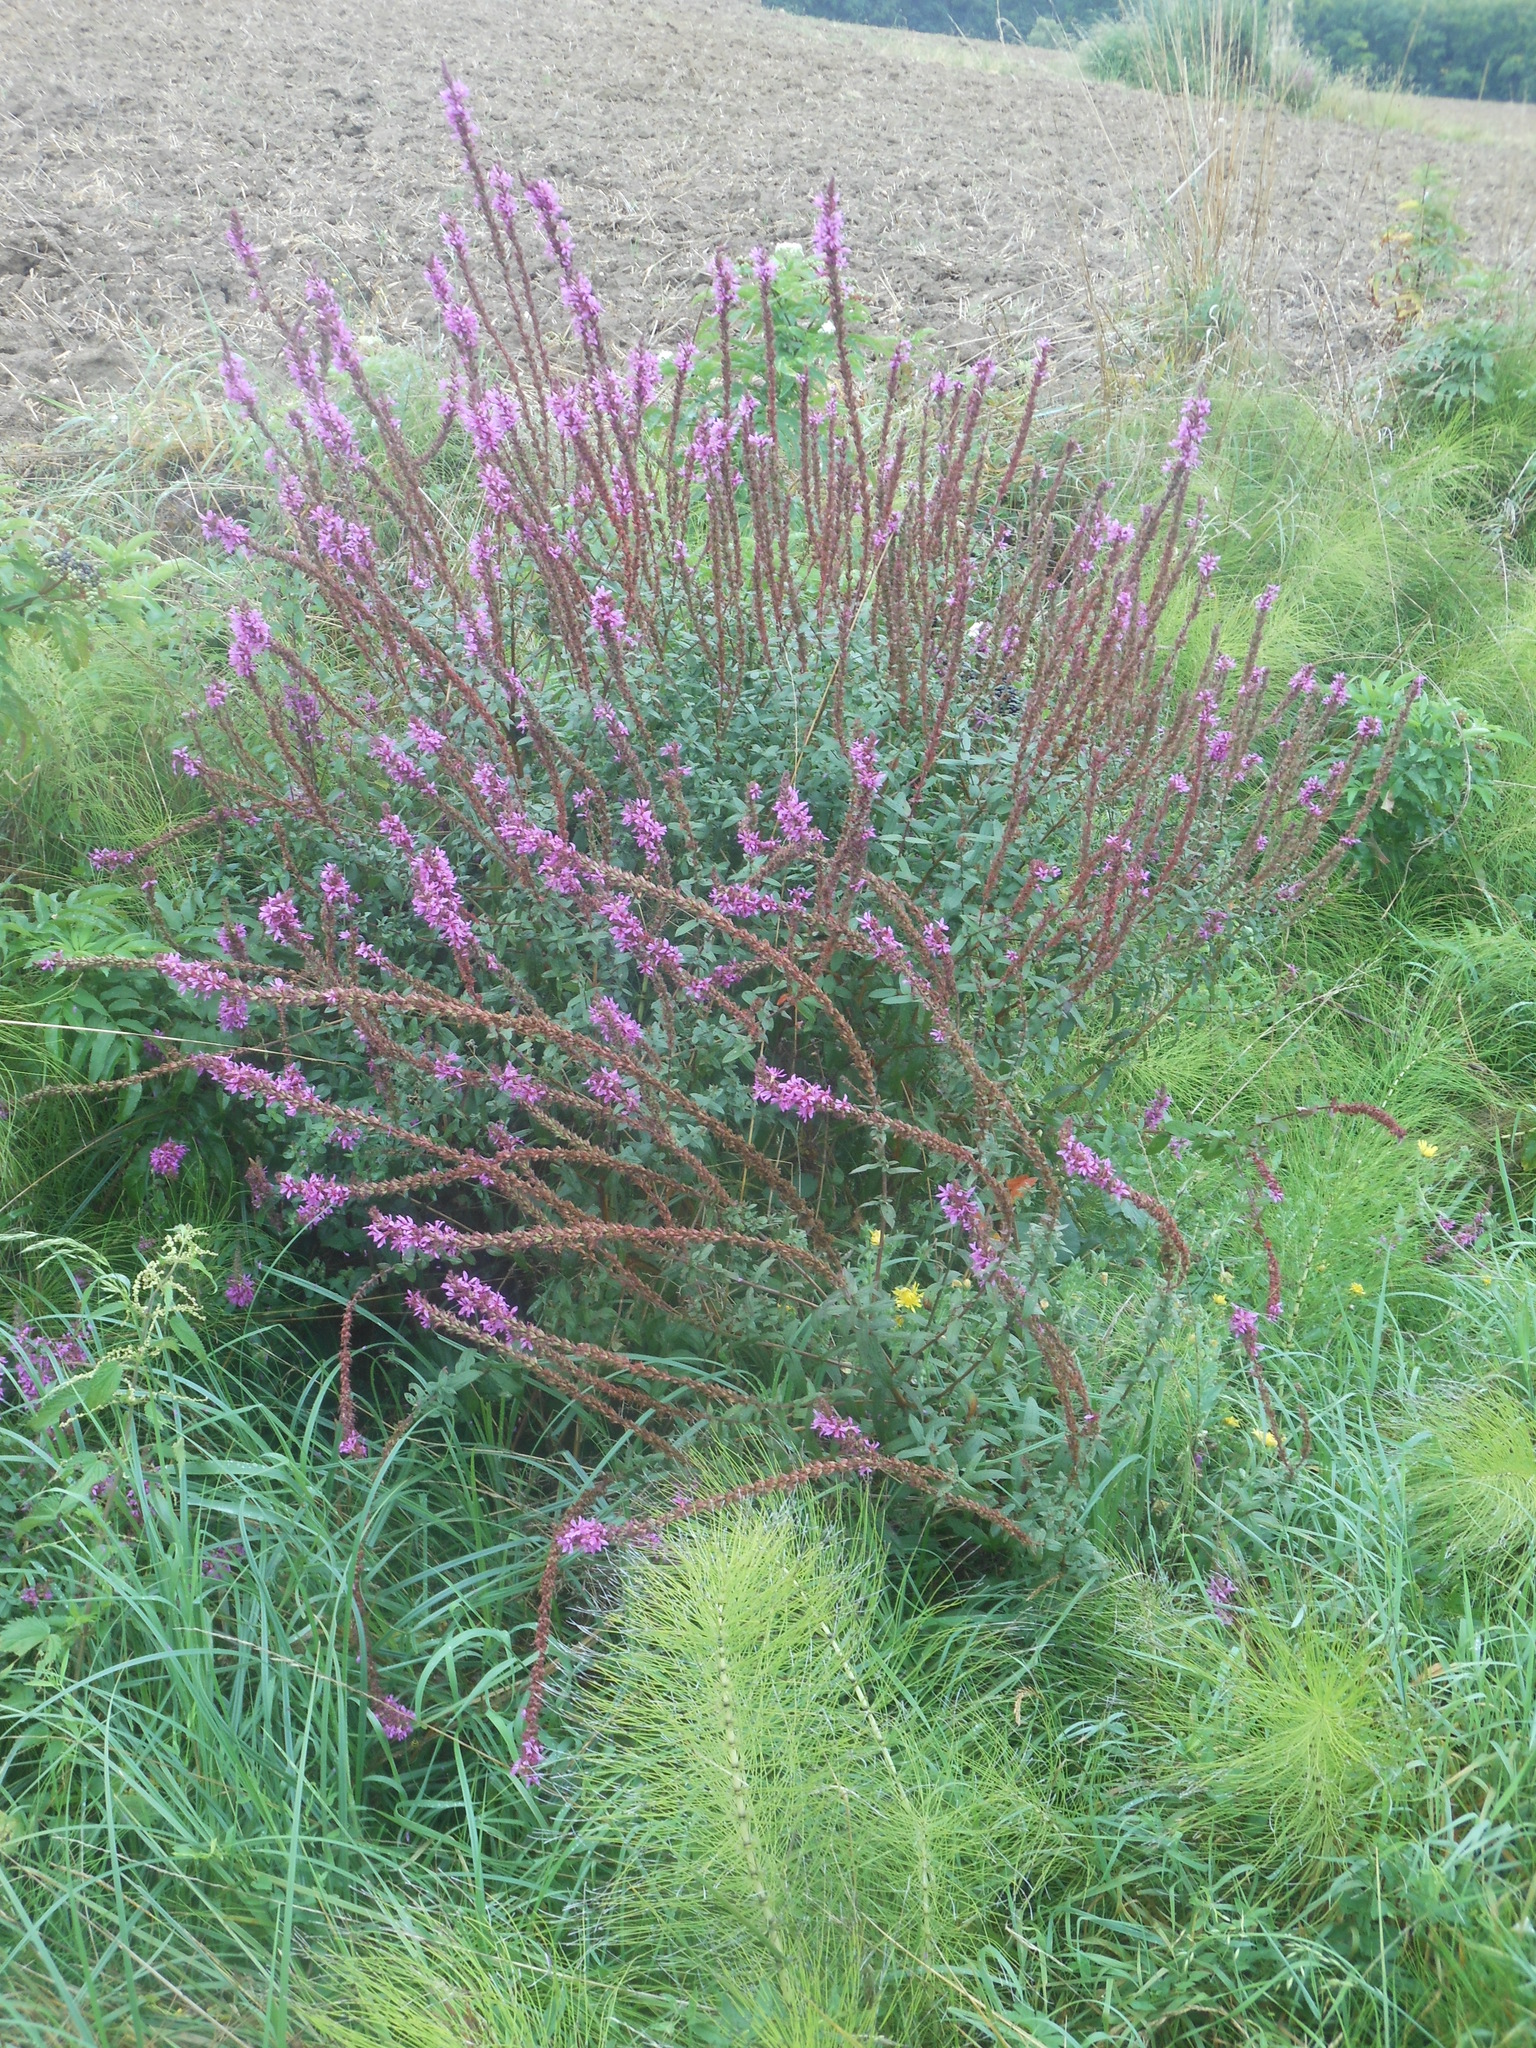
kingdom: Plantae
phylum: Tracheophyta
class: Magnoliopsida
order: Myrtales
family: Lythraceae
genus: Lythrum
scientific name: Lythrum salicaria
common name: Purple loosestrife
